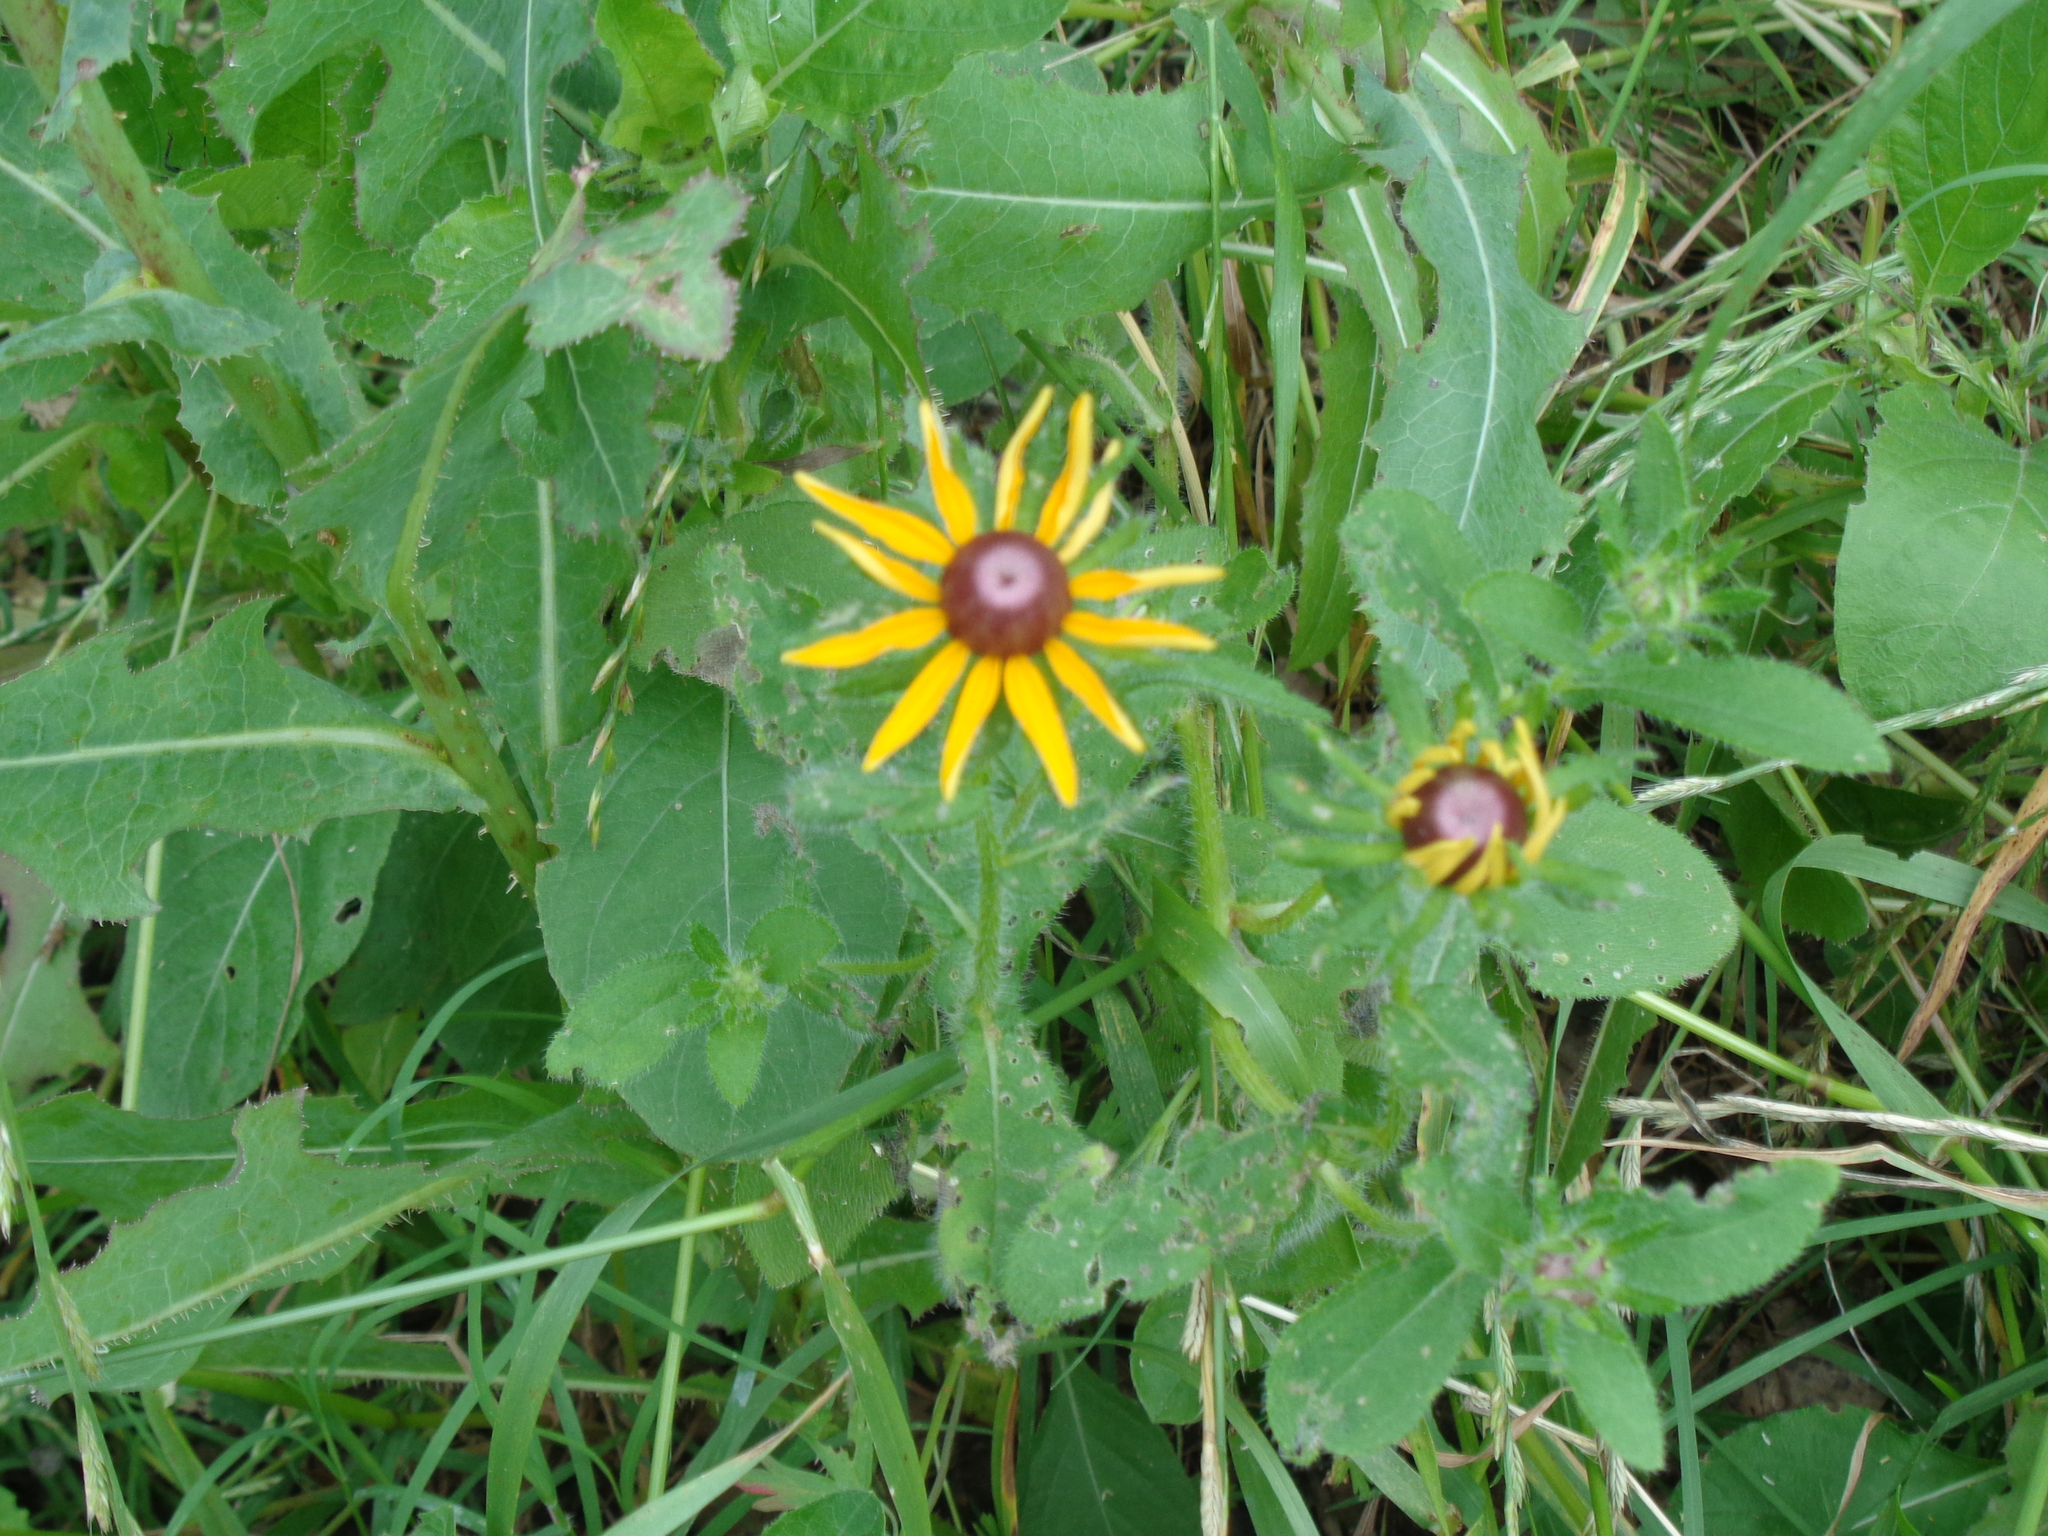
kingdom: Plantae
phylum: Tracheophyta
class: Magnoliopsida
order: Asterales
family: Asteraceae
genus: Rudbeckia
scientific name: Rudbeckia hirta
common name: Black-eyed-susan
